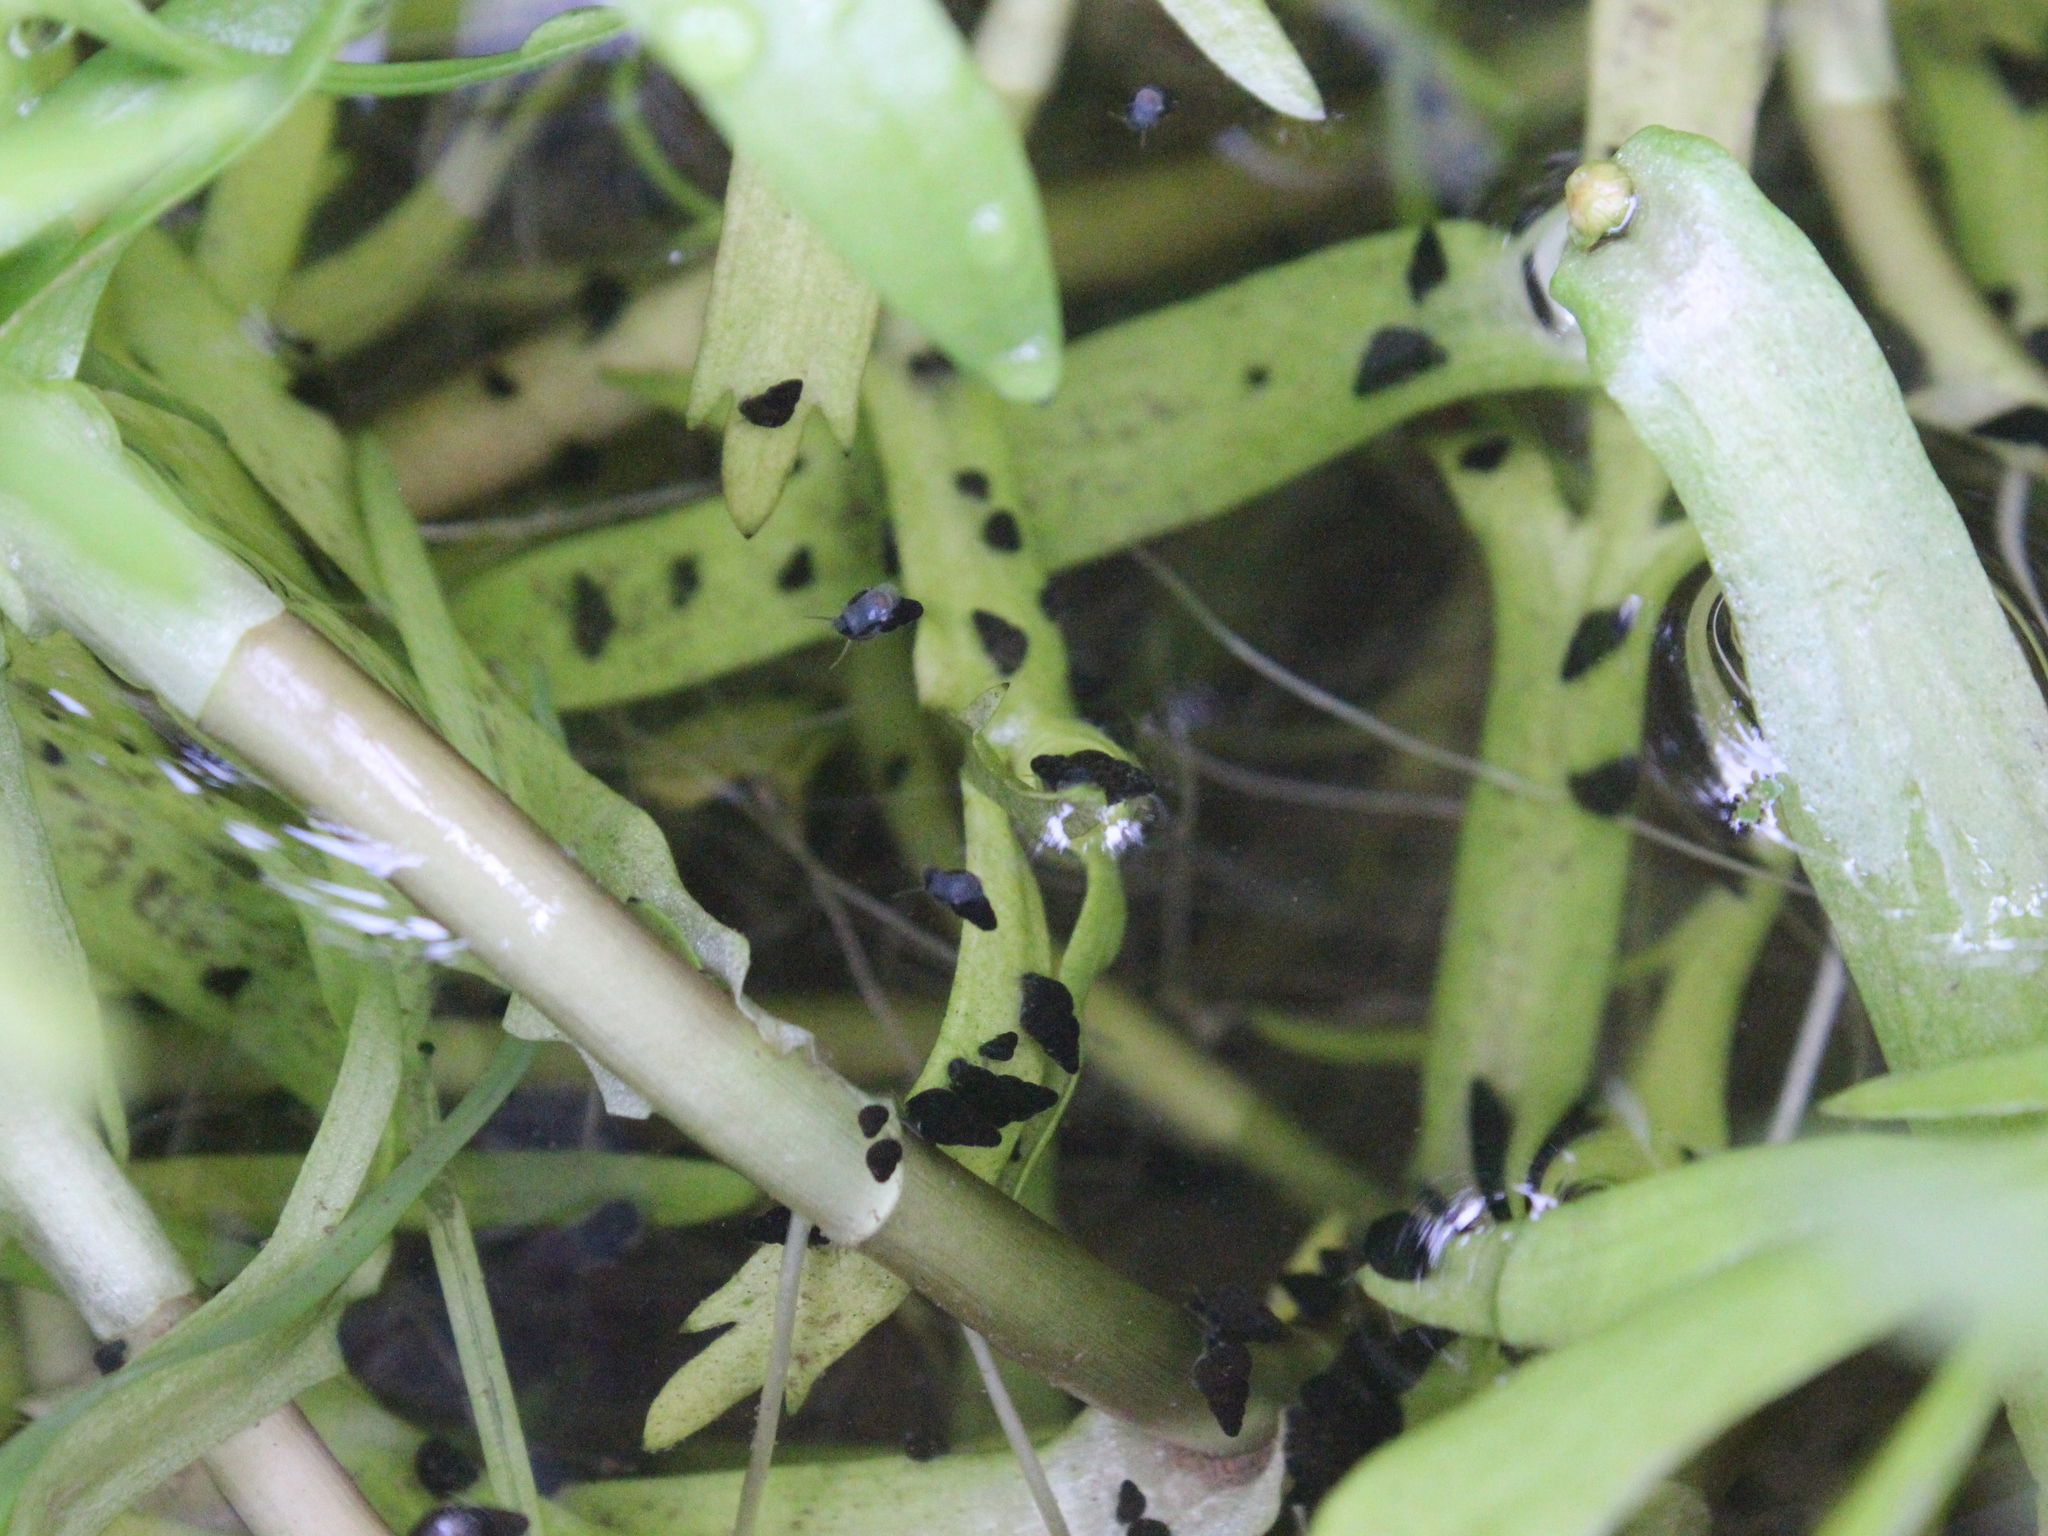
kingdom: Animalia
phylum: Mollusca
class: Gastropoda
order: Littorinimorpha
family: Tateidae
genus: Potamopyrgus
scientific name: Potamopyrgus antipodarum
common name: Jenkins' spire snail
